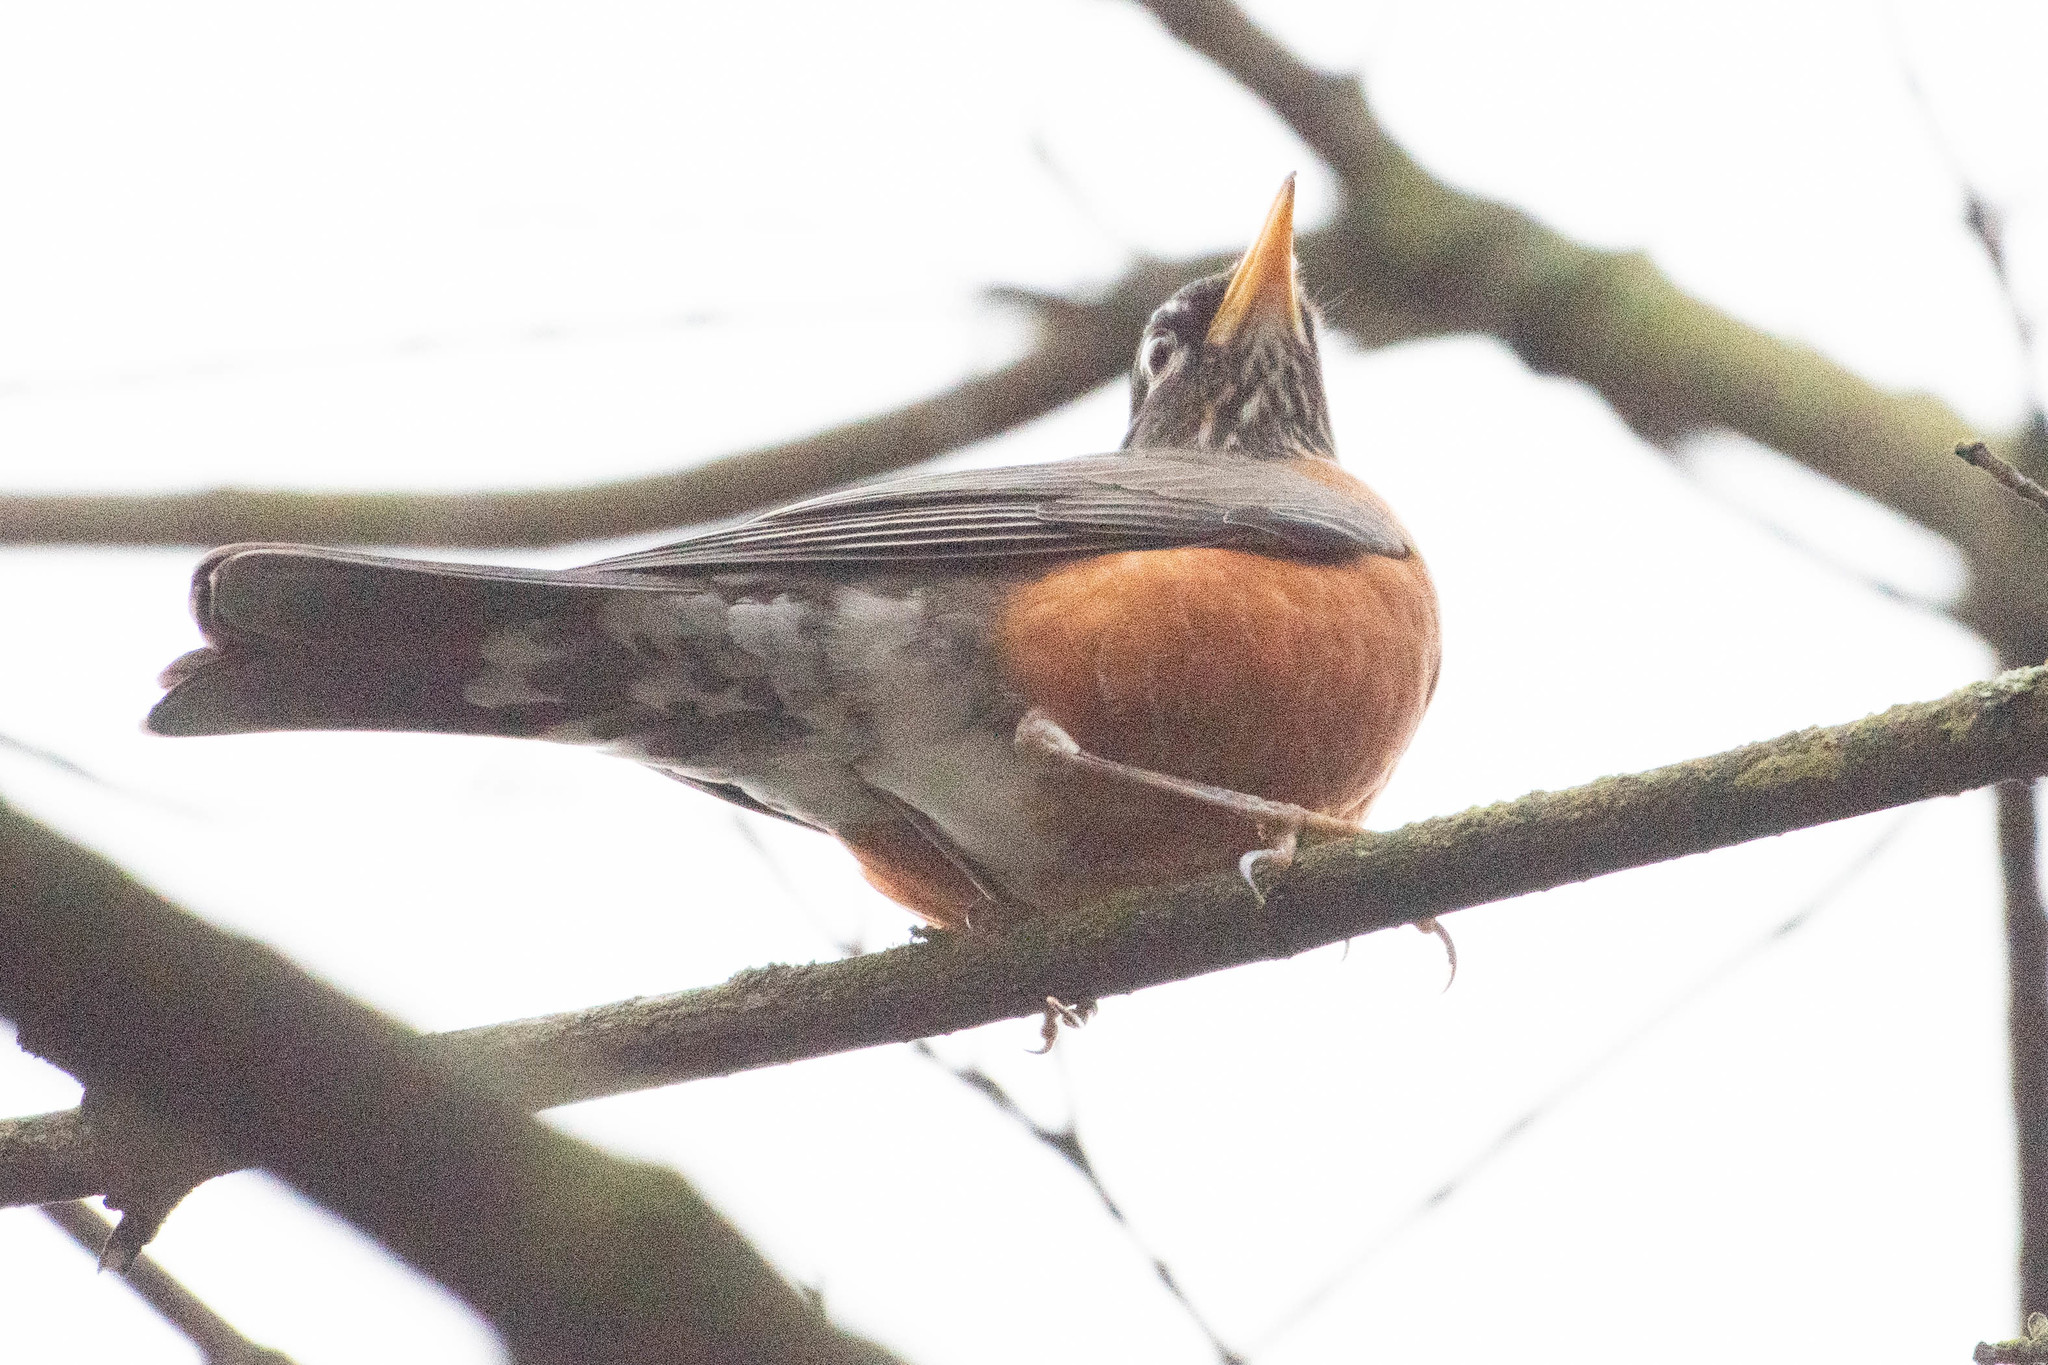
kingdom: Animalia
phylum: Chordata
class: Aves
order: Passeriformes
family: Turdidae
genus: Turdus
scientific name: Turdus migratorius
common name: American robin
